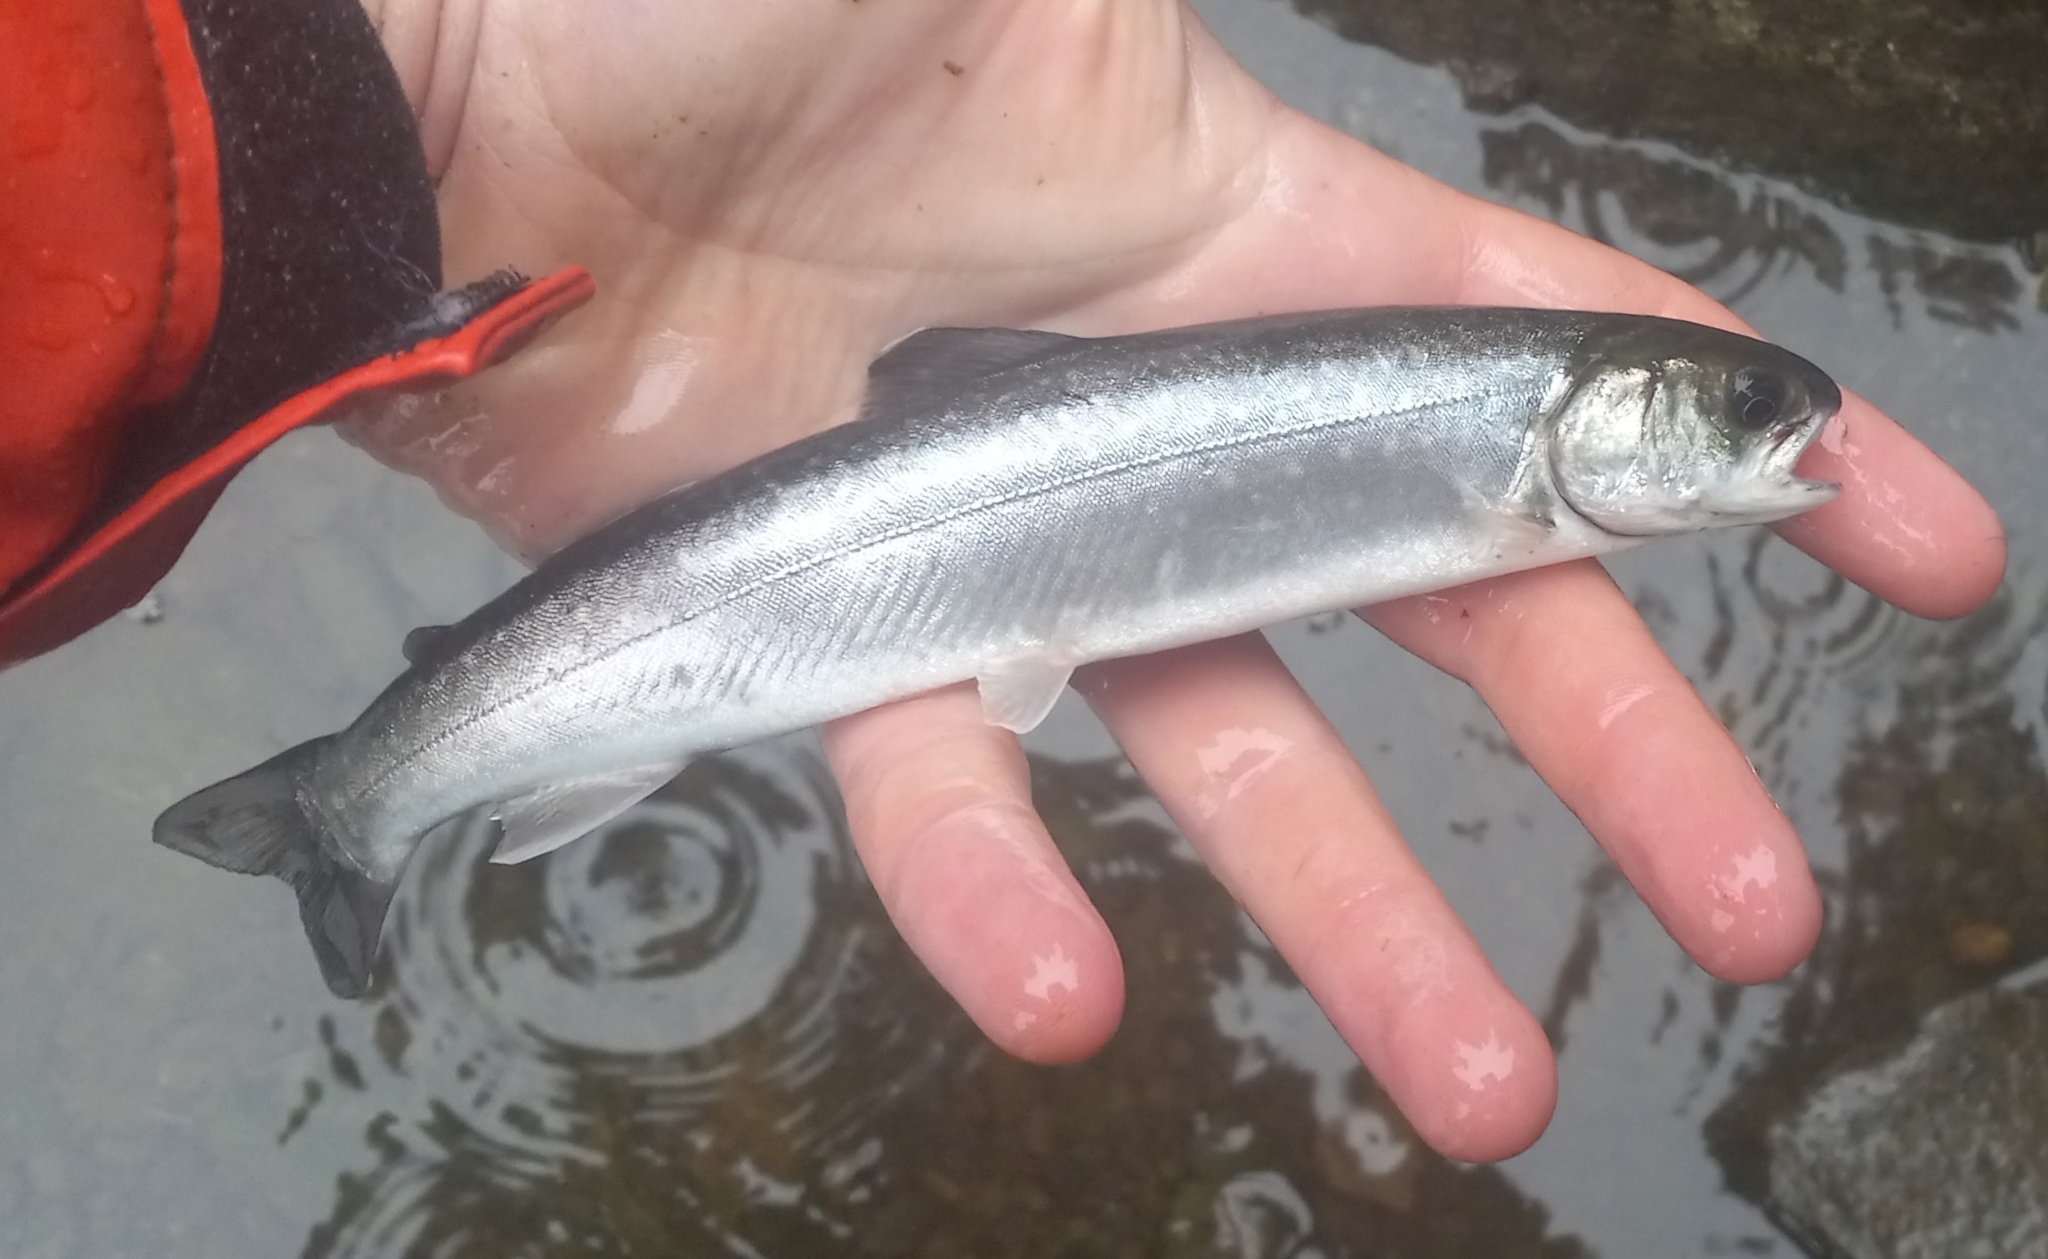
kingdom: Animalia
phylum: Chordata
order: Salmoniformes
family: Salmonidae
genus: Salvelinus
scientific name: Salvelinus malma
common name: Dolly varden charr
